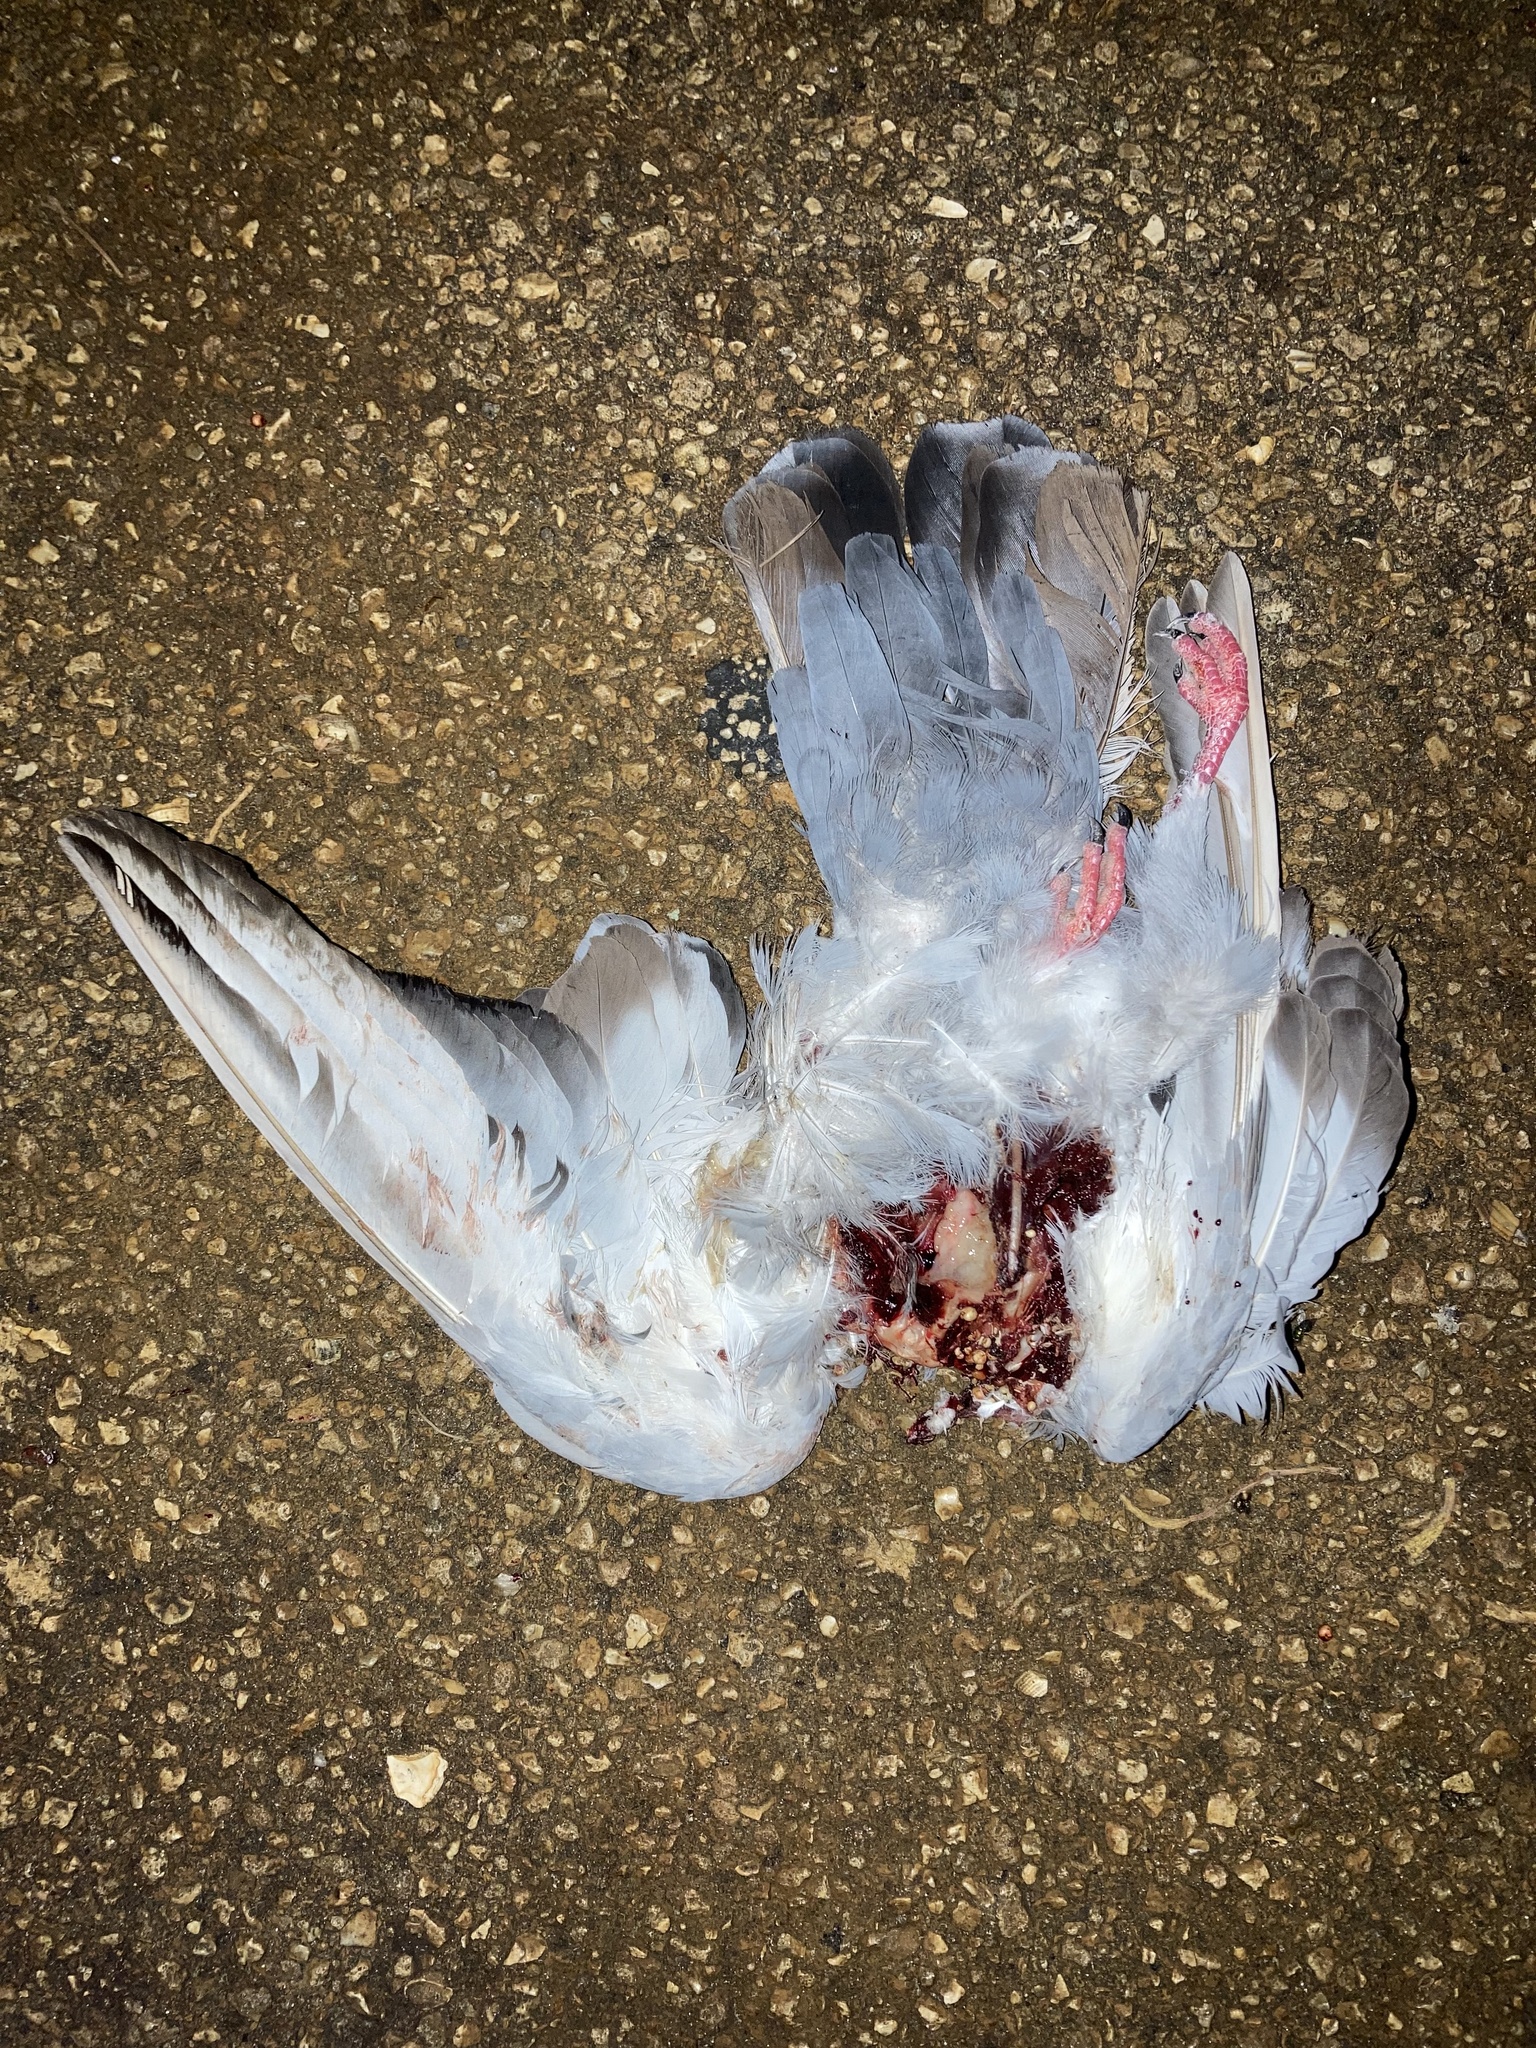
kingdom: Animalia
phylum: Chordata
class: Aves
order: Columbiformes
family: Columbidae
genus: Columba
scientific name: Columba livia
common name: Rock pigeon
